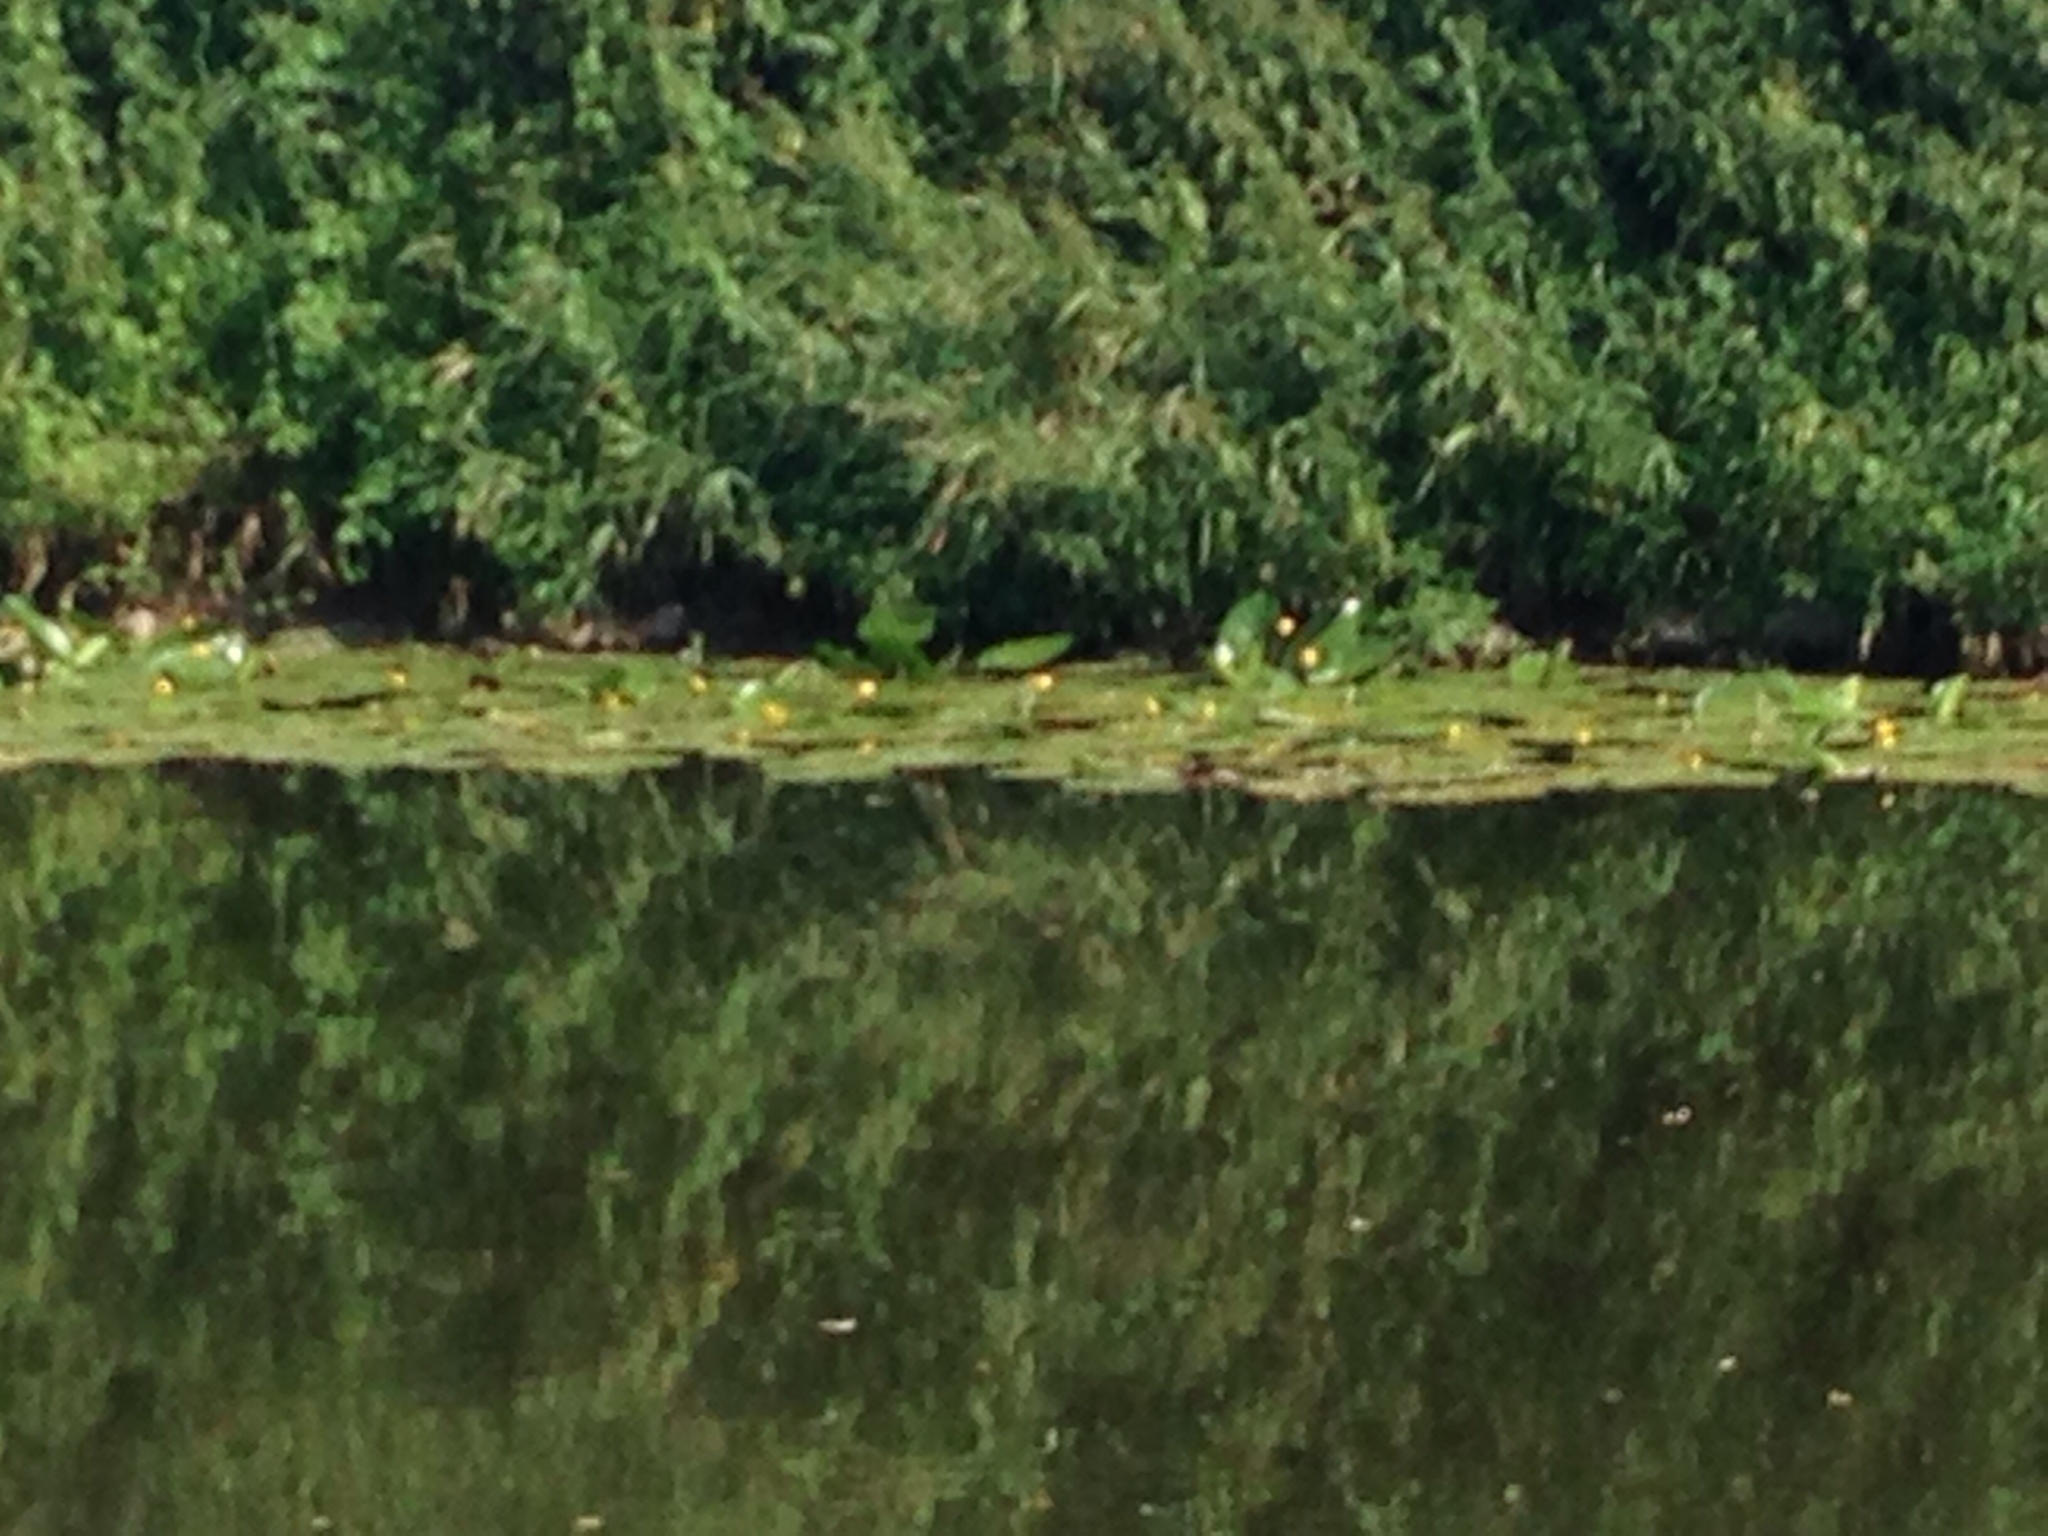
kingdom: Plantae
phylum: Tracheophyta
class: Magnoliopsida
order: Nymphaeales
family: Nymphaeaceae
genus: Nuphar
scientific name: Nuphar lutea
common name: Yellow water-lily
